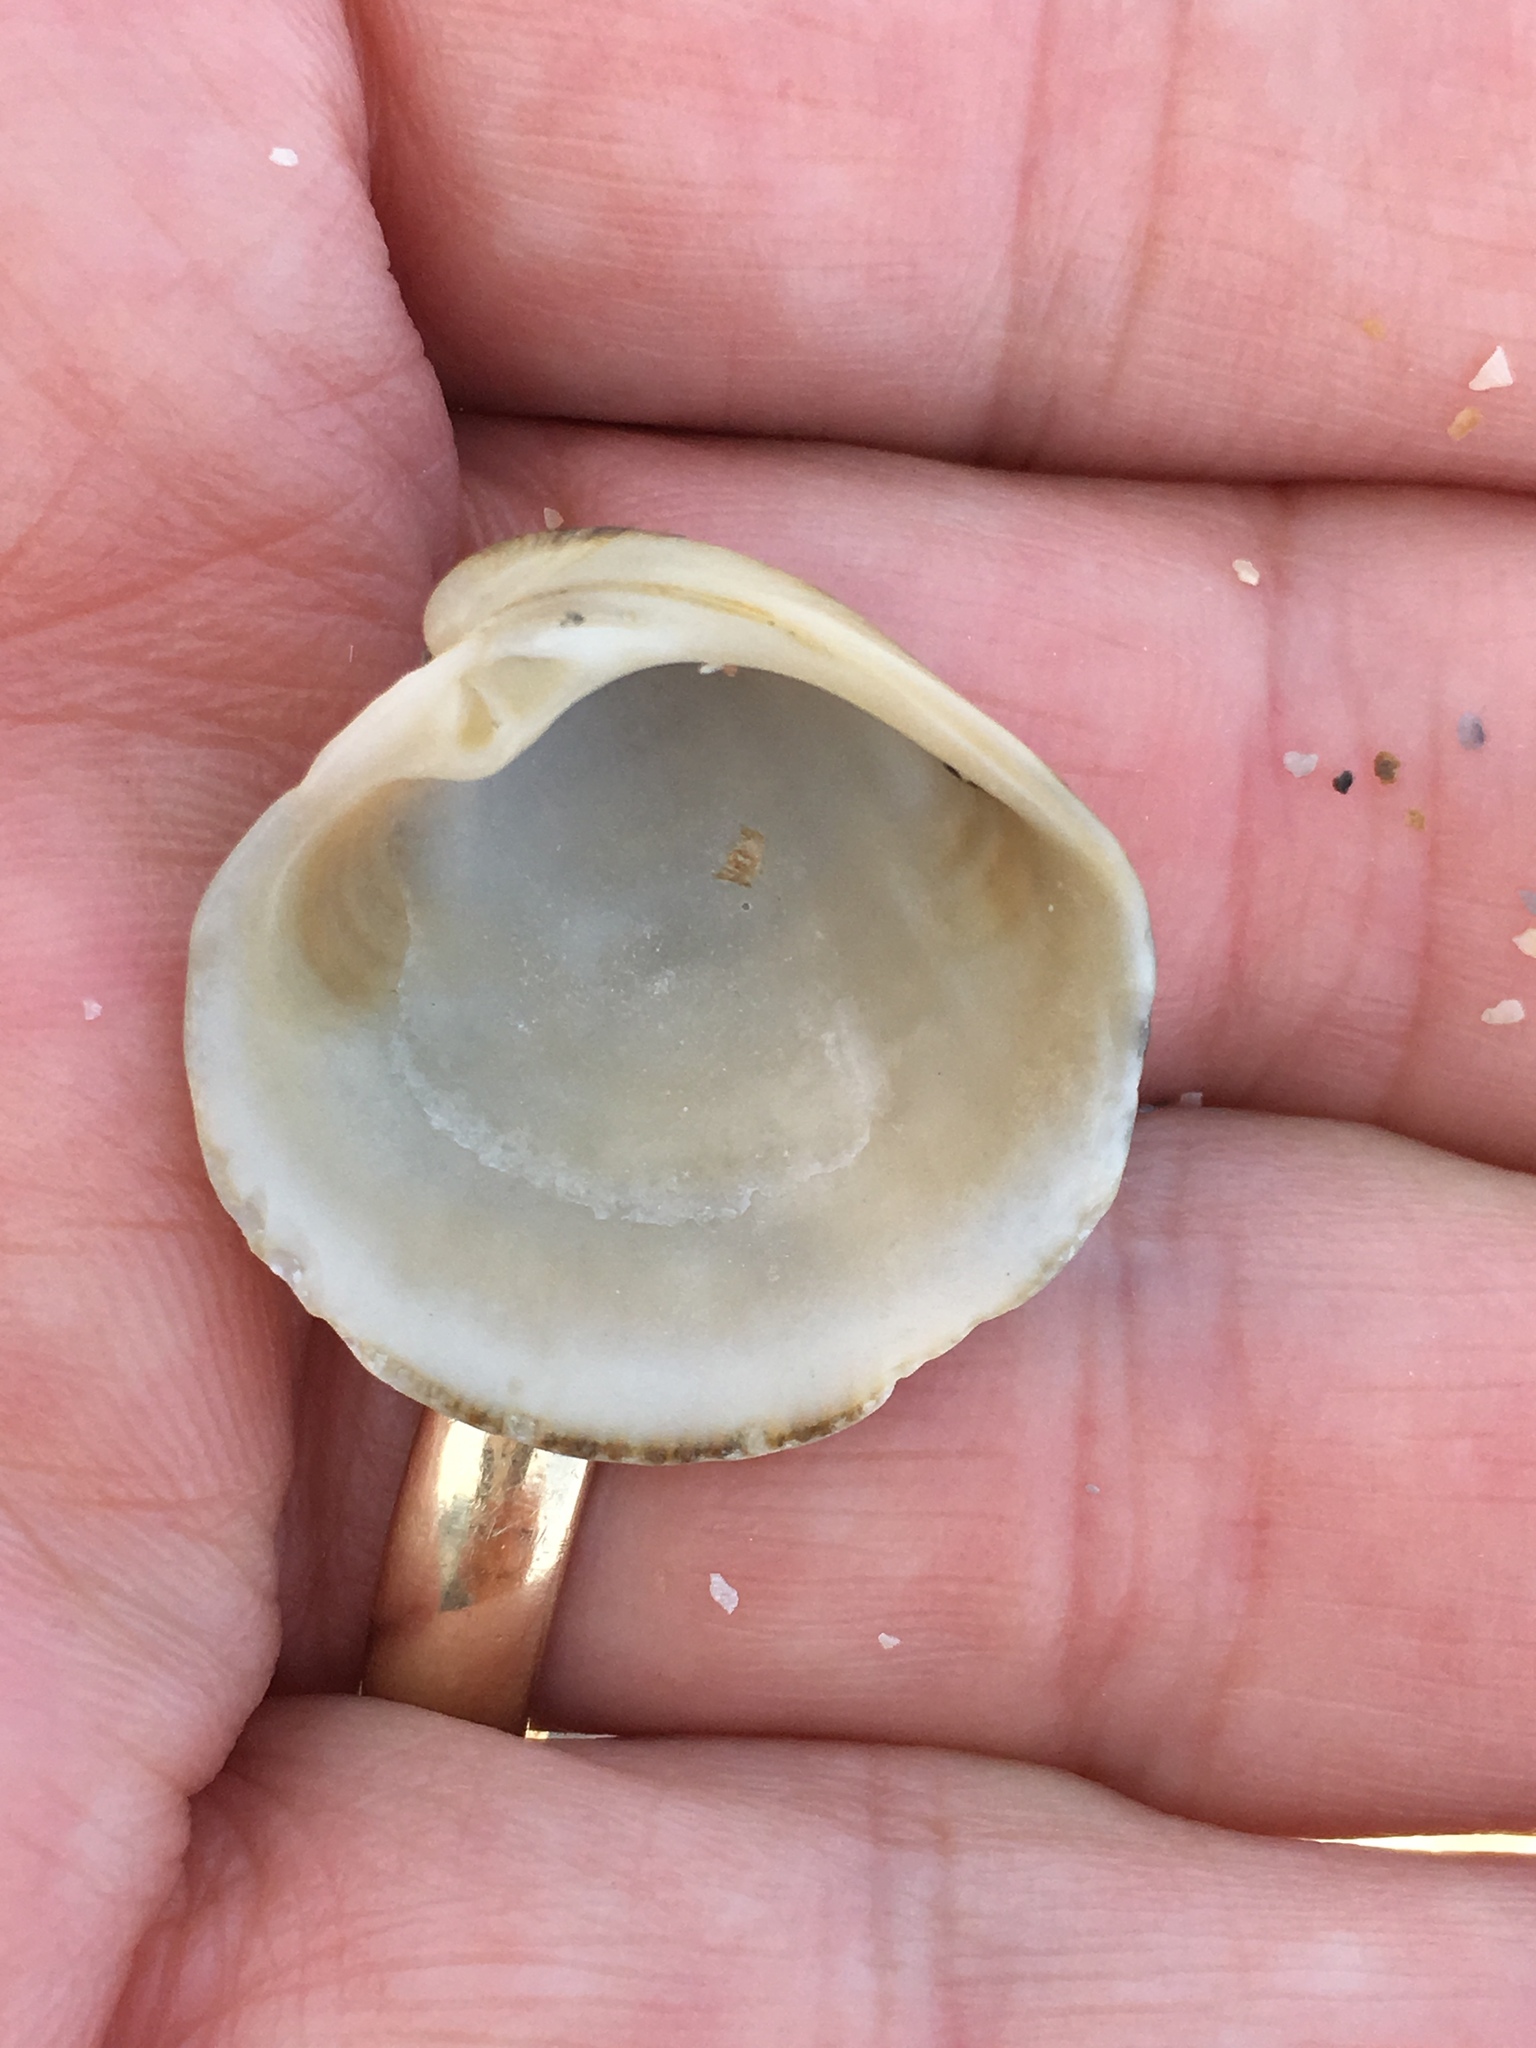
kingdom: Animalia
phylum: Mollusca
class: Bivalvia
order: Venerida
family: Veneridae
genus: Chionopsis
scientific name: Chionopsis intapurpurea
